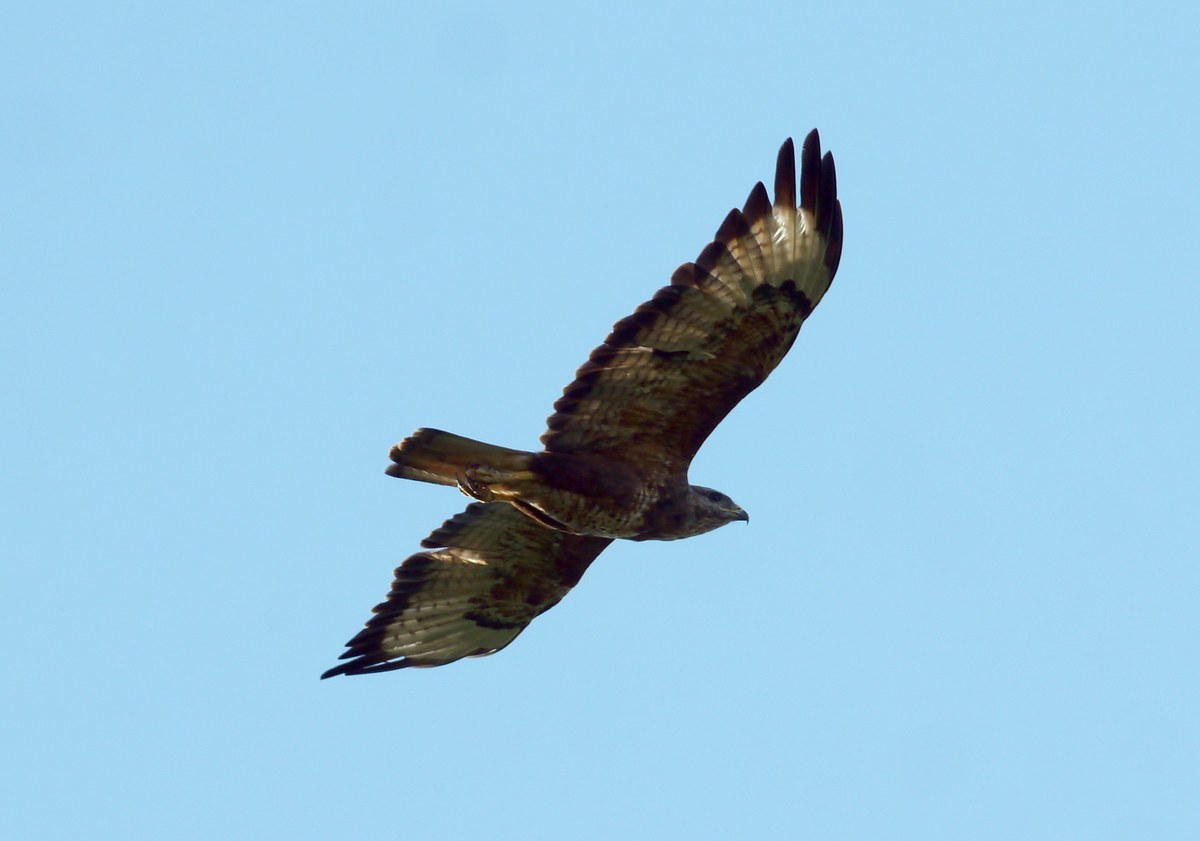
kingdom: Animalia
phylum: Chordata
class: Aves
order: Accipitriformes
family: Accipitridae
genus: Buteo
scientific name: Buteo buteo
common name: Common buzzard
